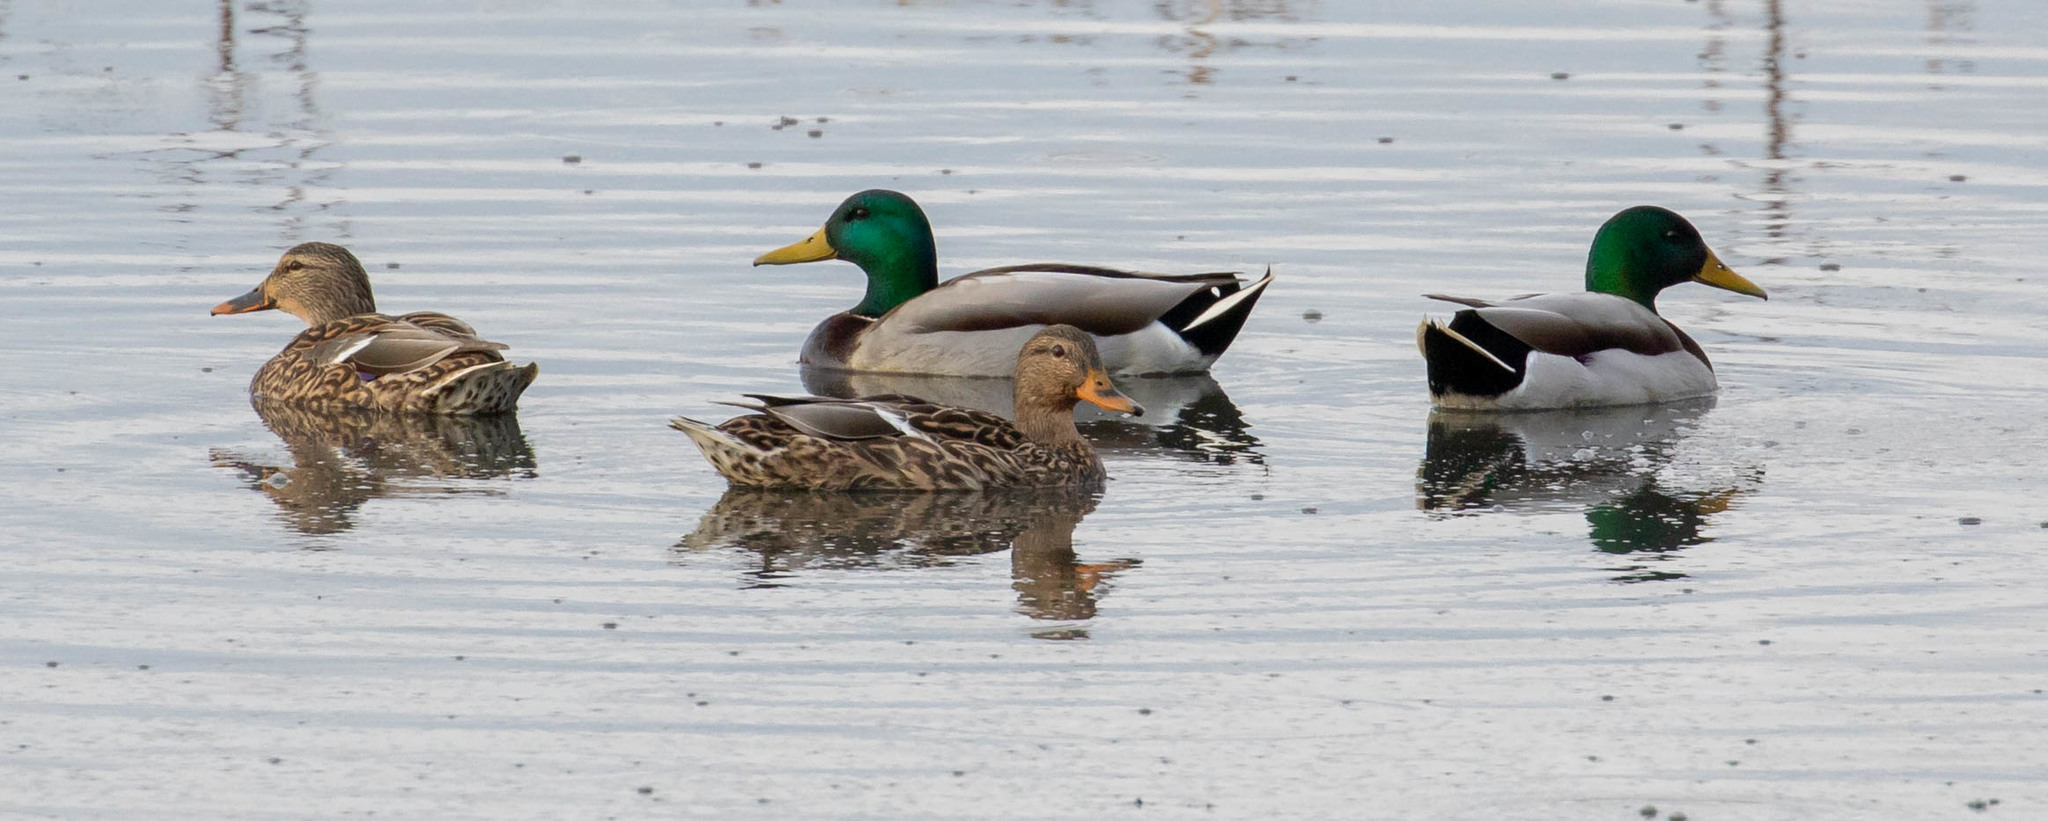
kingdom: Animalia
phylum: Chordata
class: Aves
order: Anseriformes
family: Anatidae
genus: Anas
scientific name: Anas platyrhynchos
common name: Mallard
